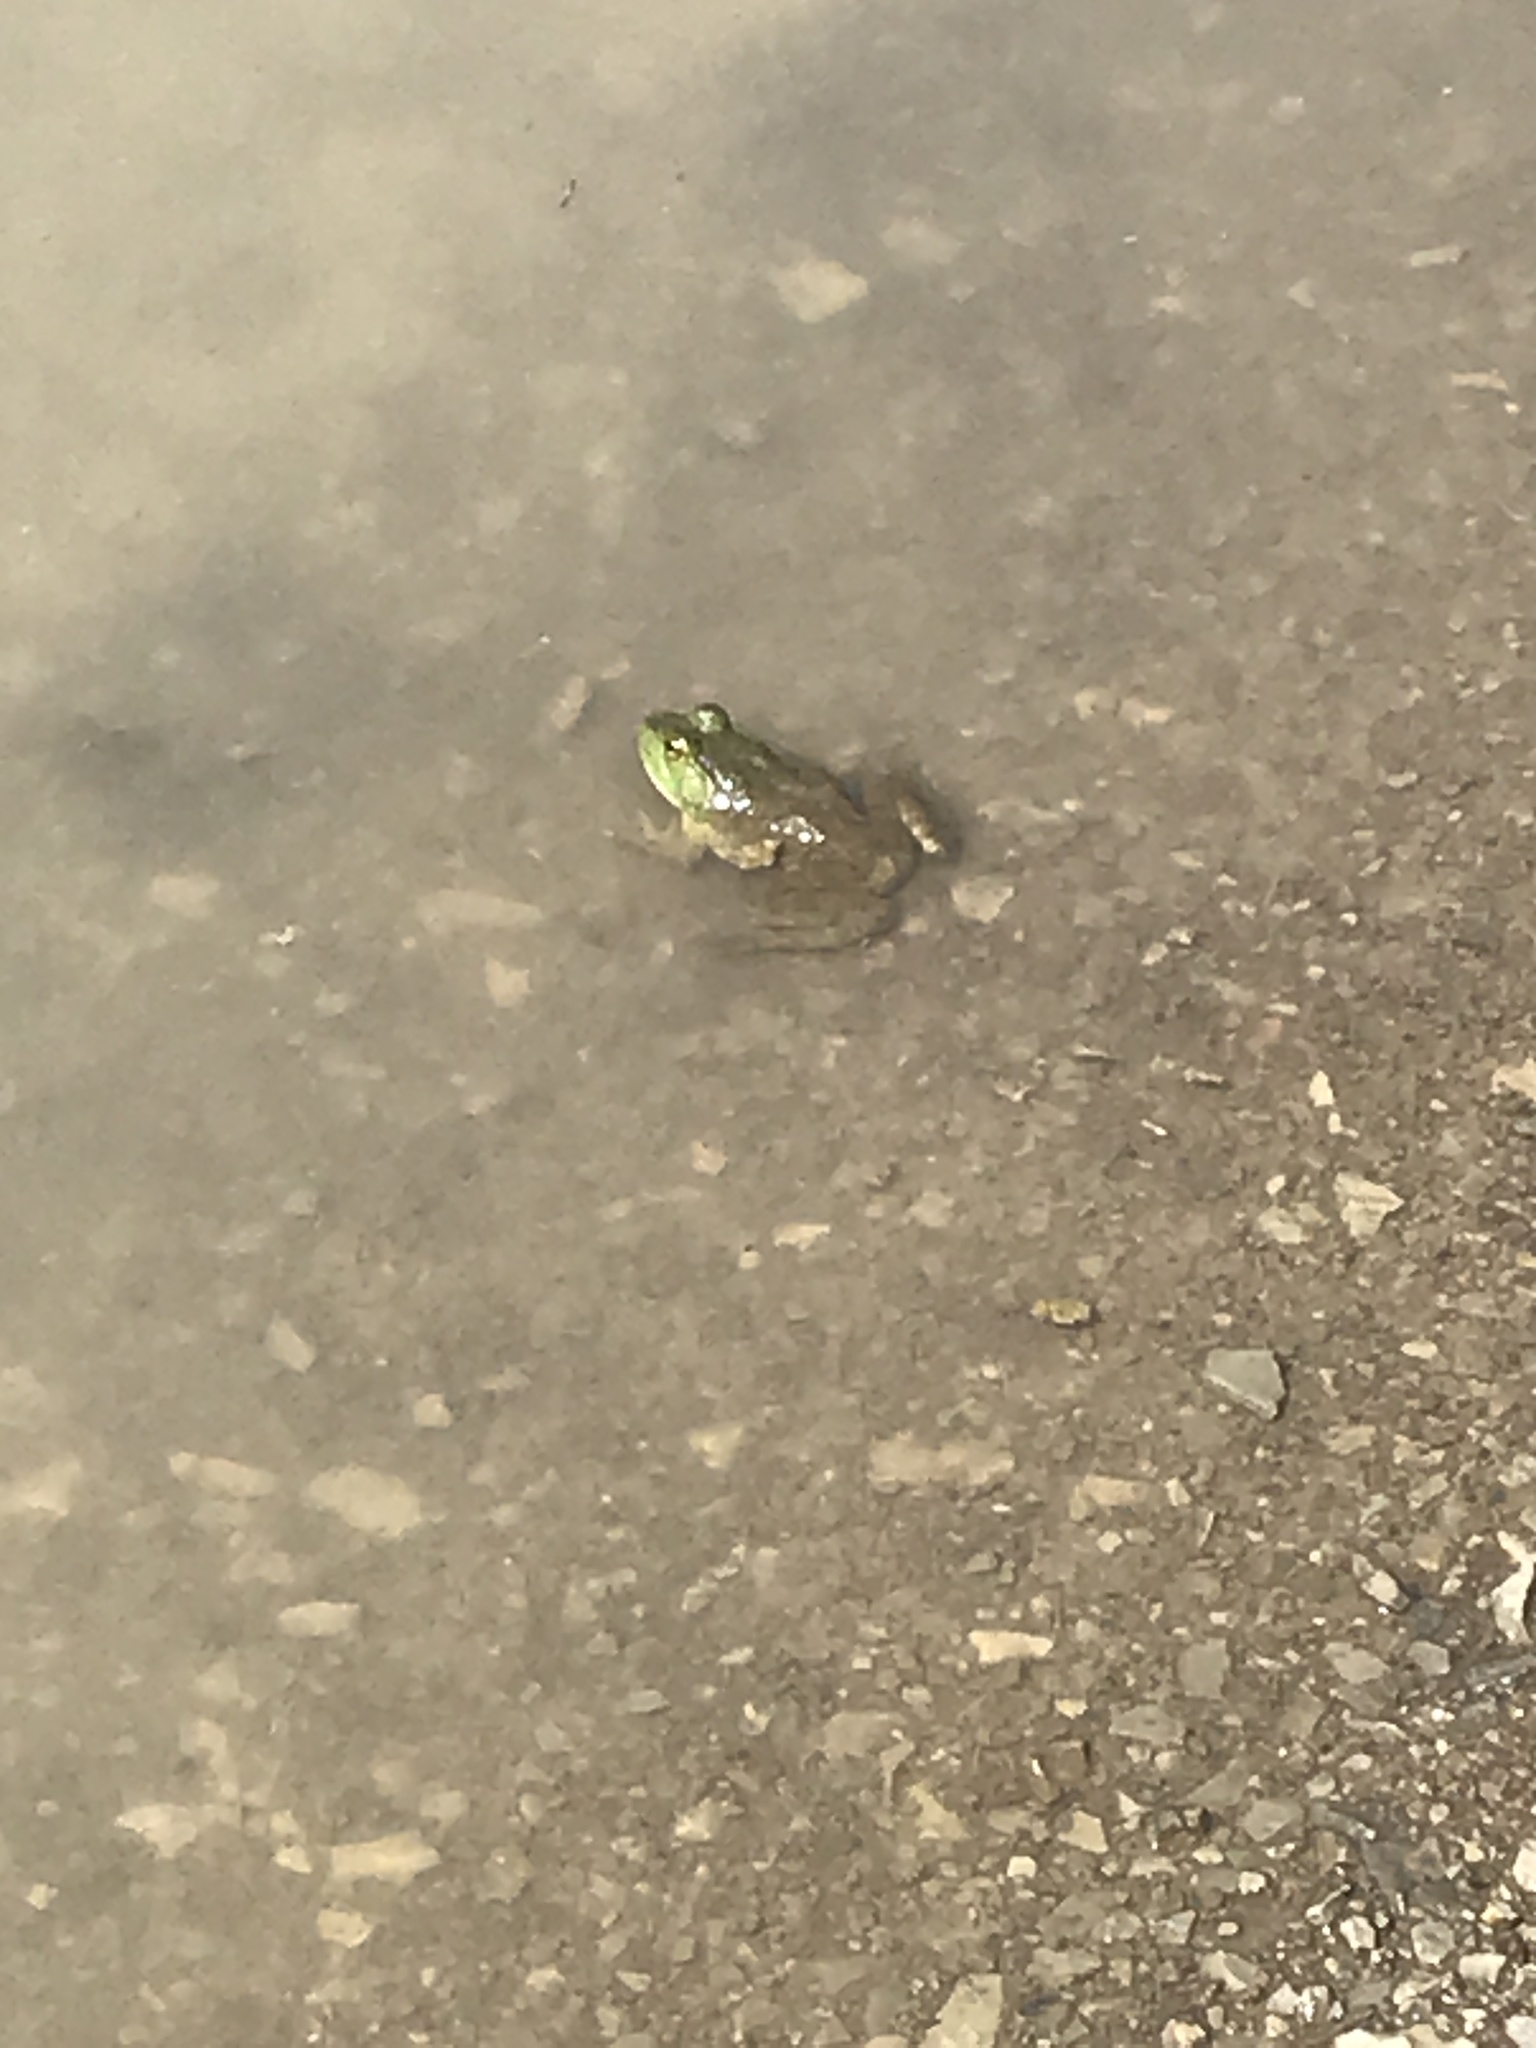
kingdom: Animalia
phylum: Chordata
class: Amphibia
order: Anura
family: Ranidae
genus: Lithobates
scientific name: Lithobates catesbeianus
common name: American bullfrog
